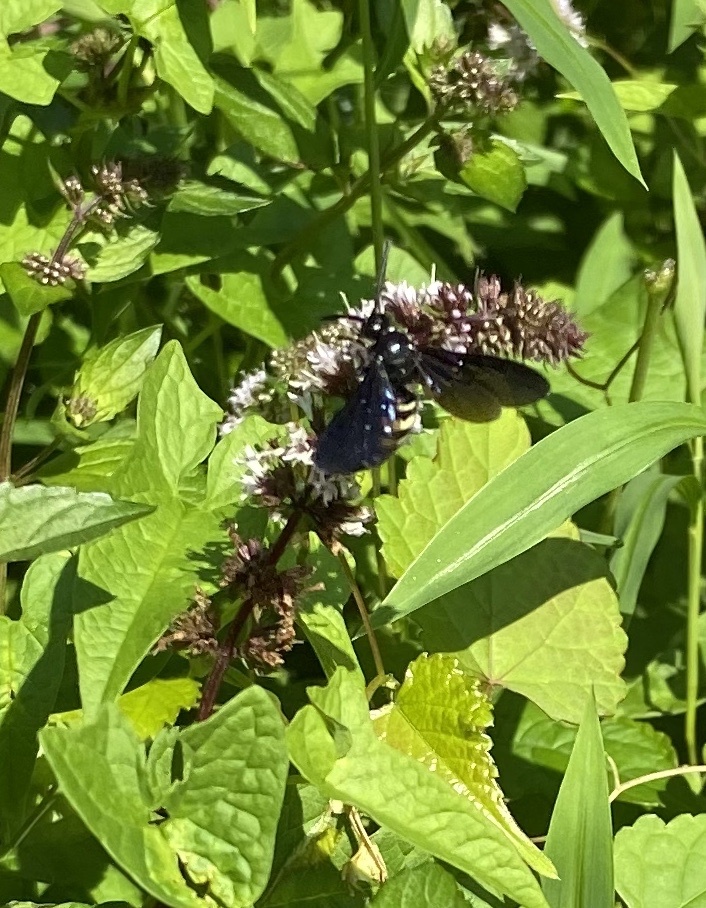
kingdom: Animalia
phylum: Arthropoda
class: Insecta
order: Hymenoptera
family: Scoliidae
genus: Scolia
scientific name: Scolia bicincta
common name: Double-banded scoliid wasp
